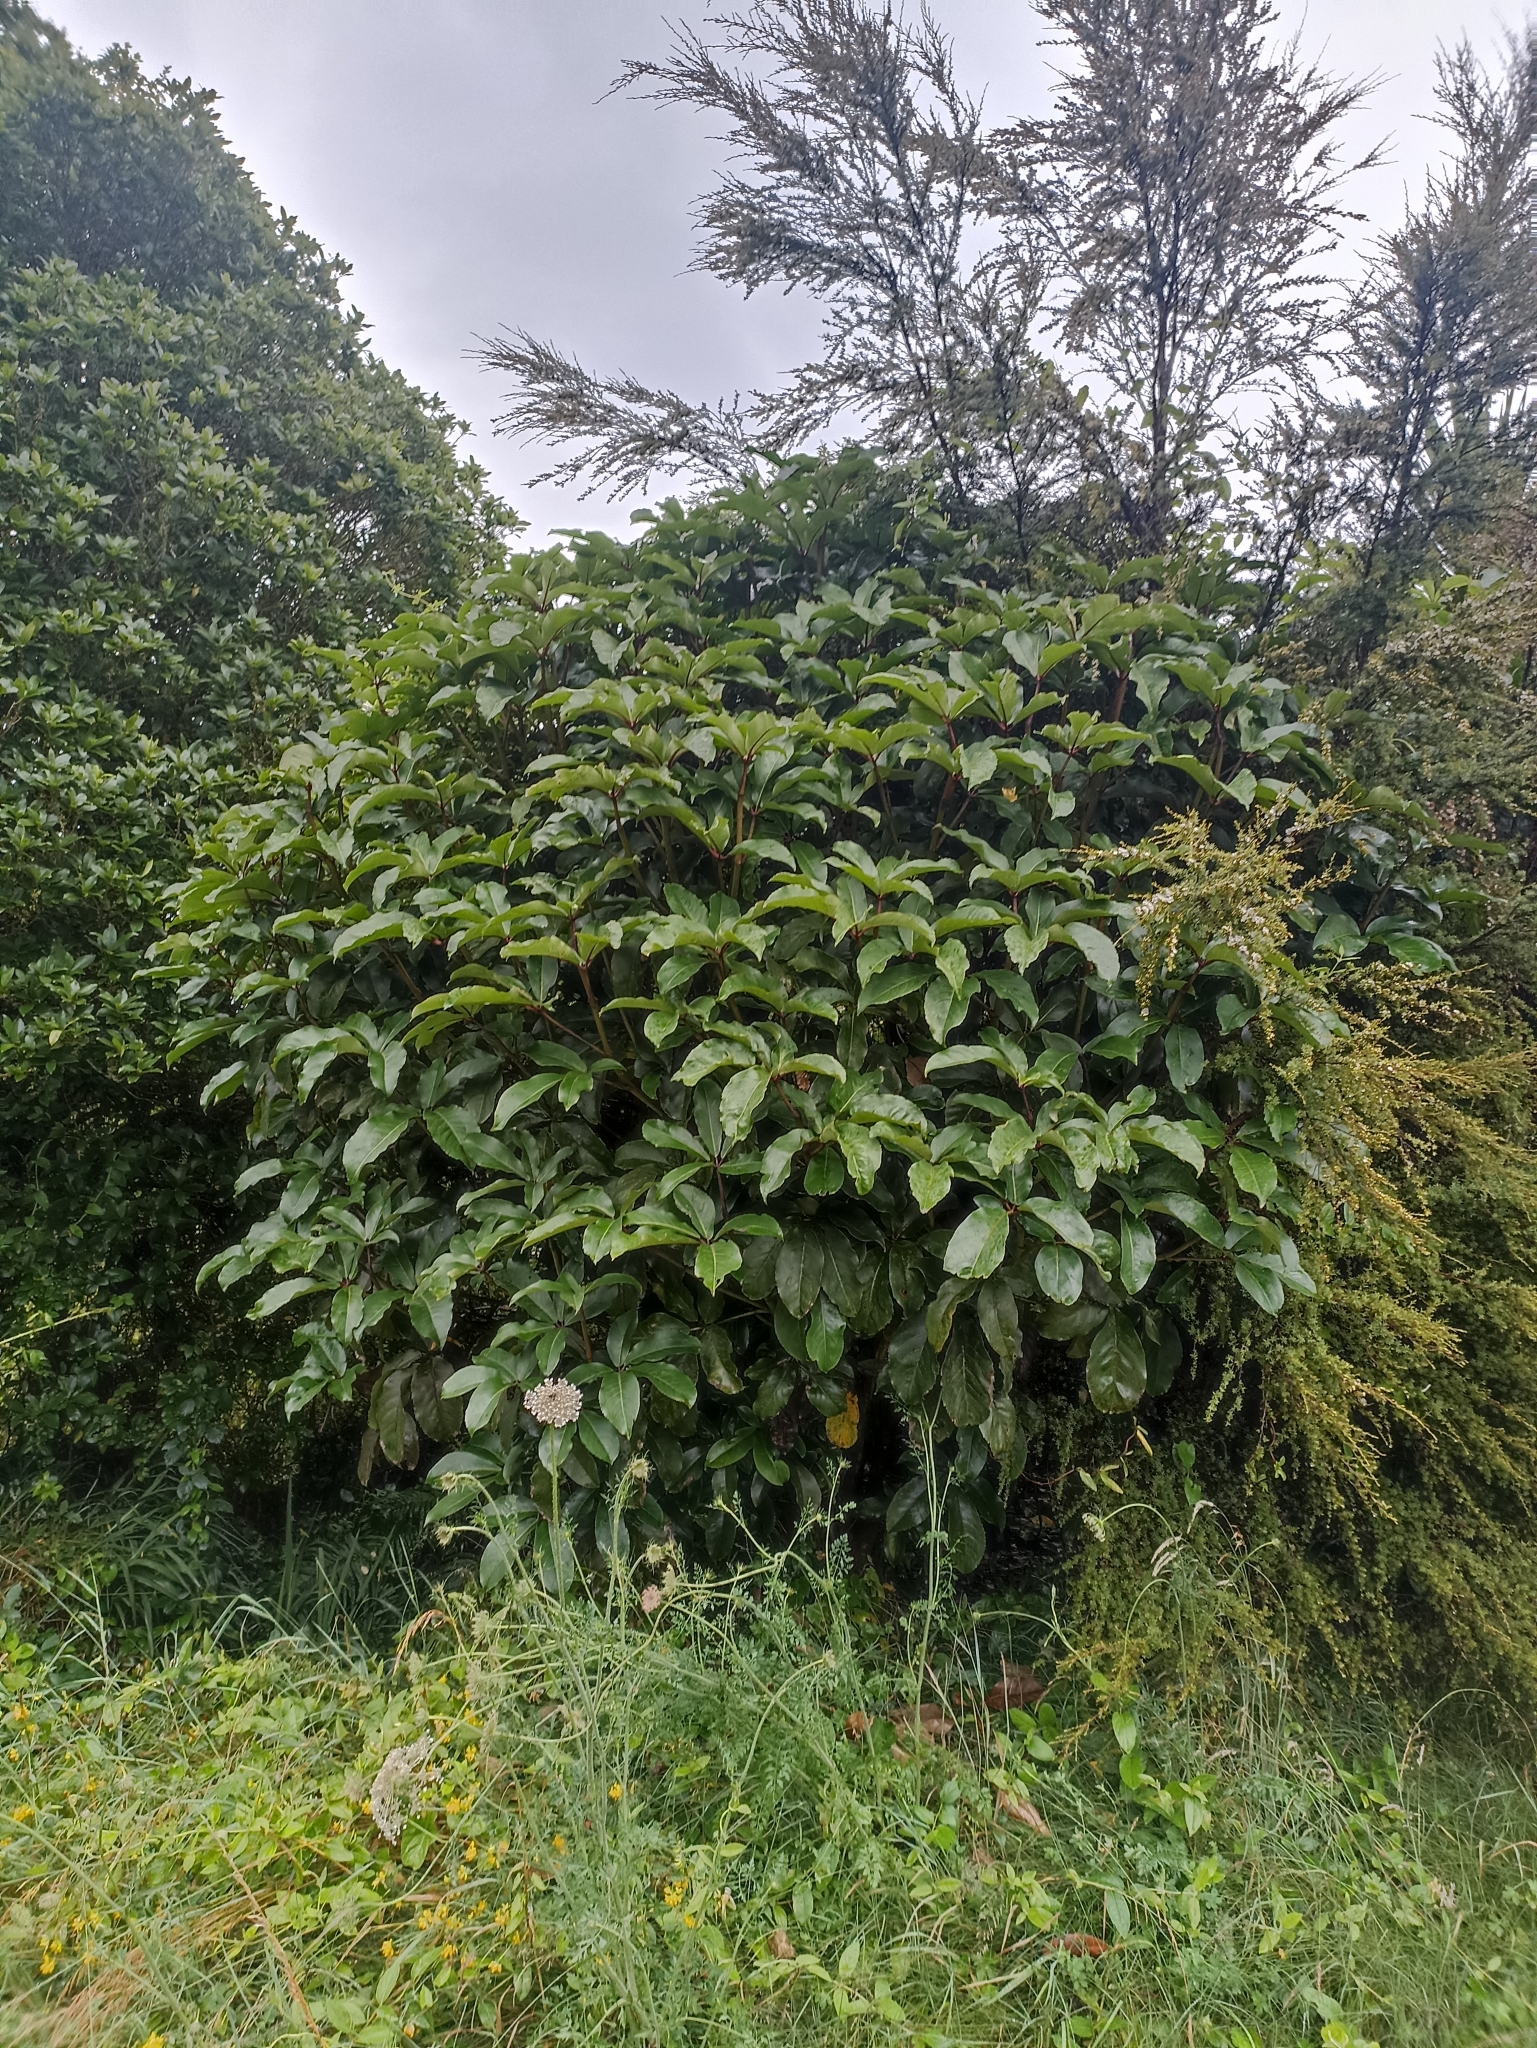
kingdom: Plantae
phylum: Tracheophyta
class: Magnoliopsida
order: Apiales
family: Araliaceae
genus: Neopanax
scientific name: Neopanax laetus
